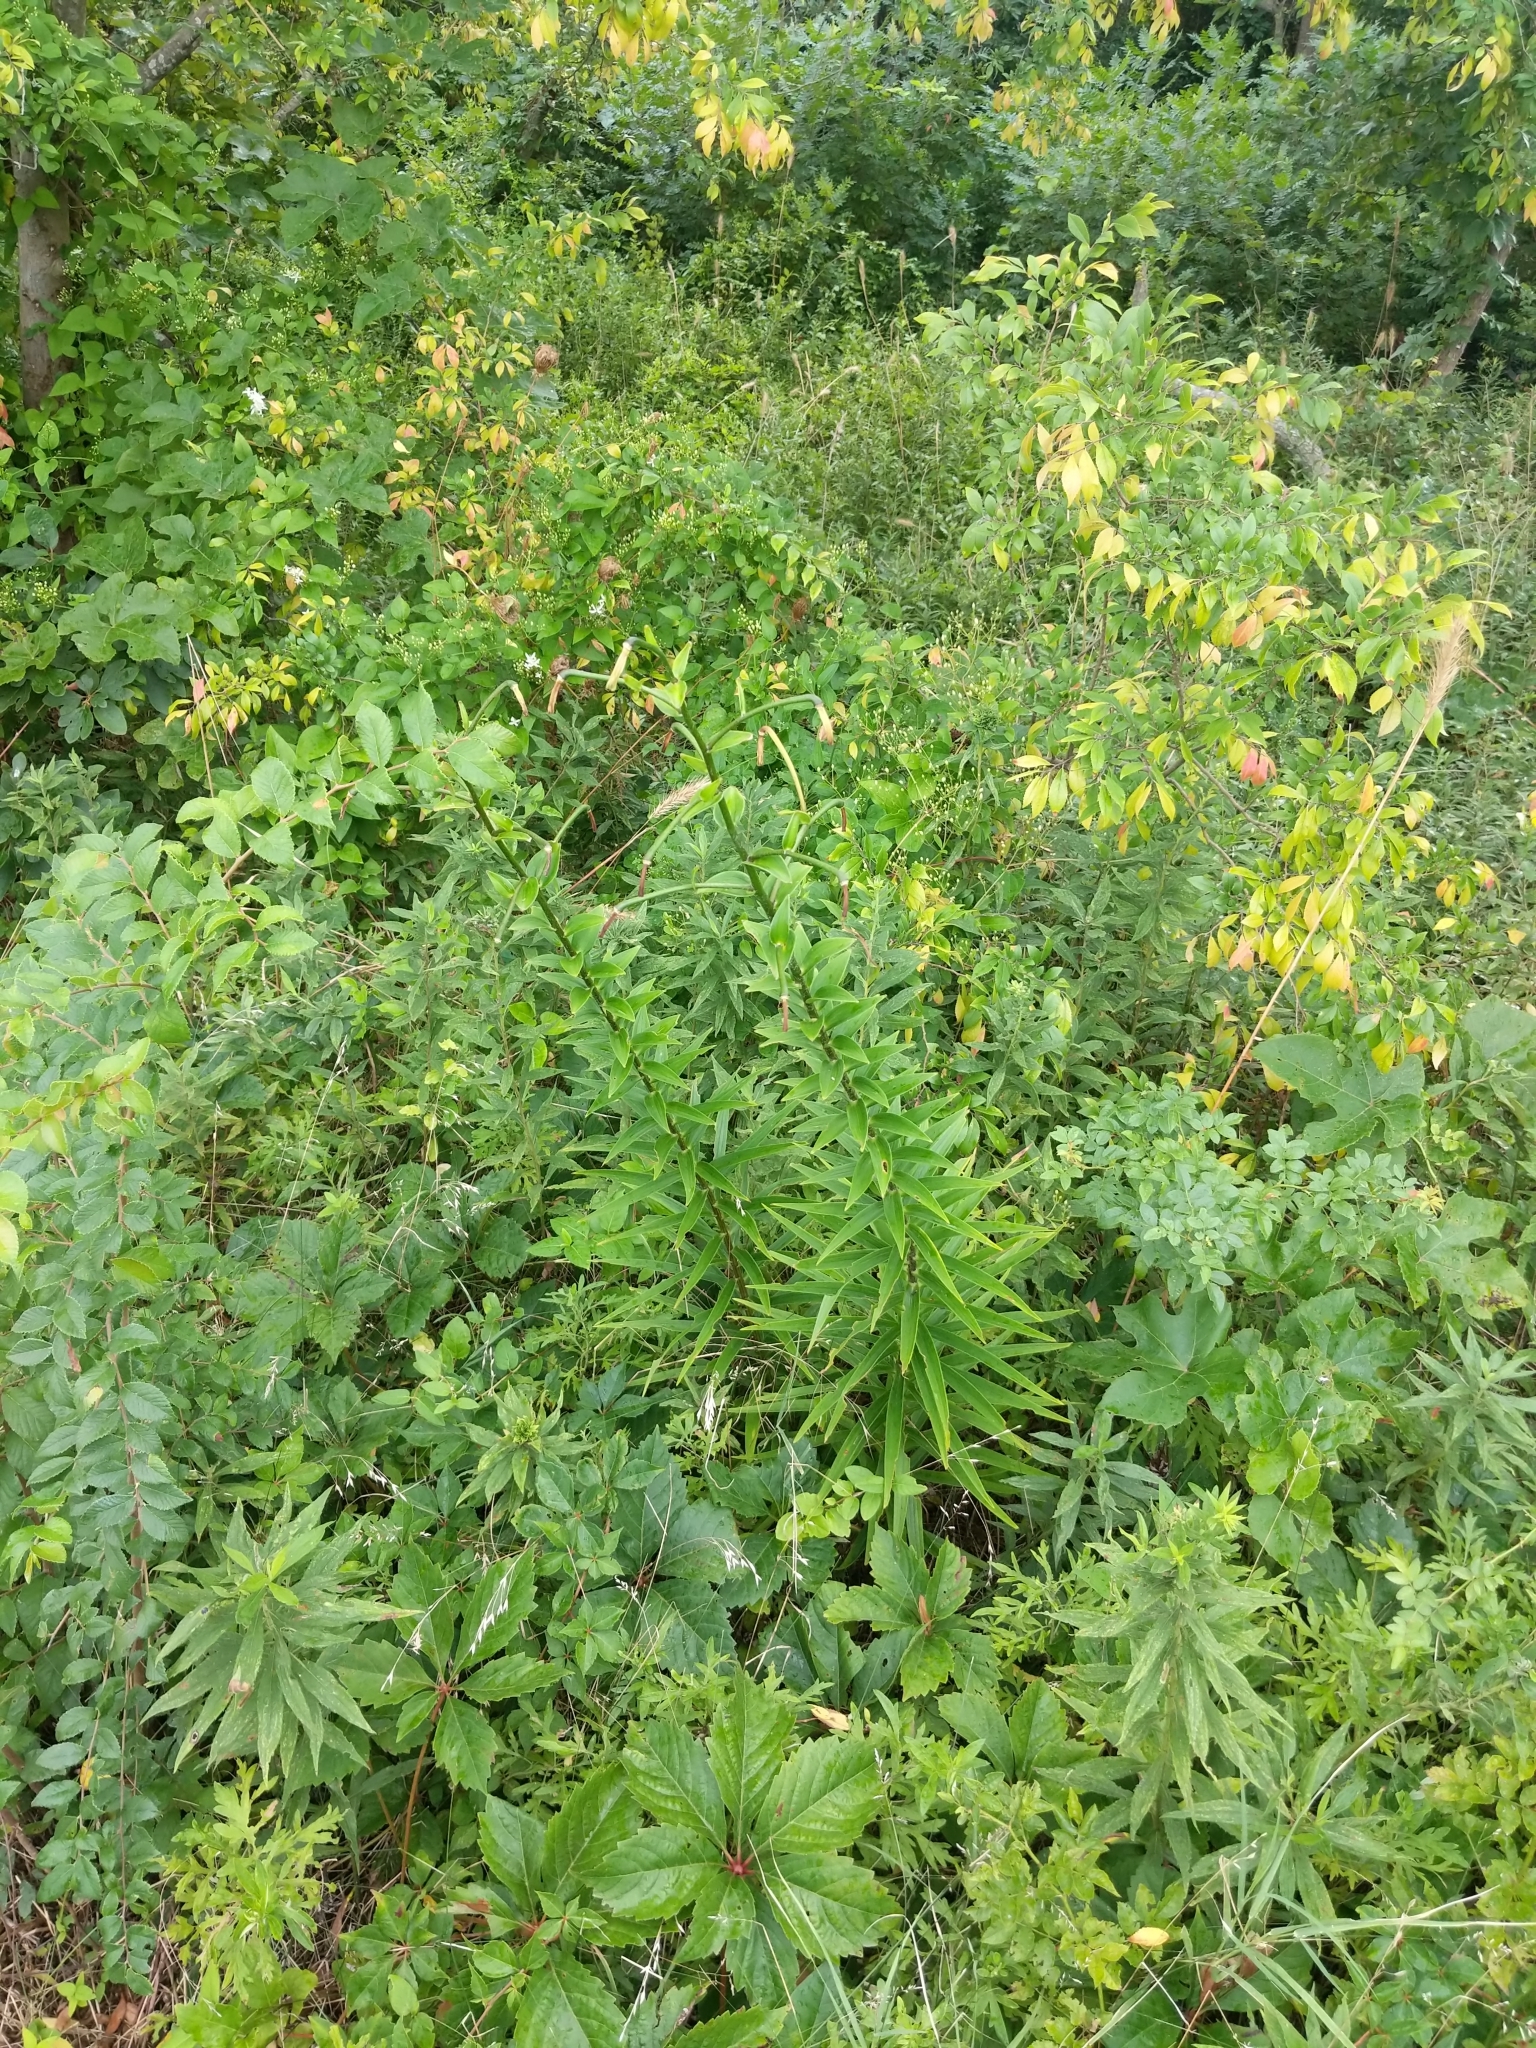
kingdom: Plantae
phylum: Tracheophyta
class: Liliopsida
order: Liliales
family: Liliaceae
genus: Lilium
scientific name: Lilium lancifolium
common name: Tiger lily
